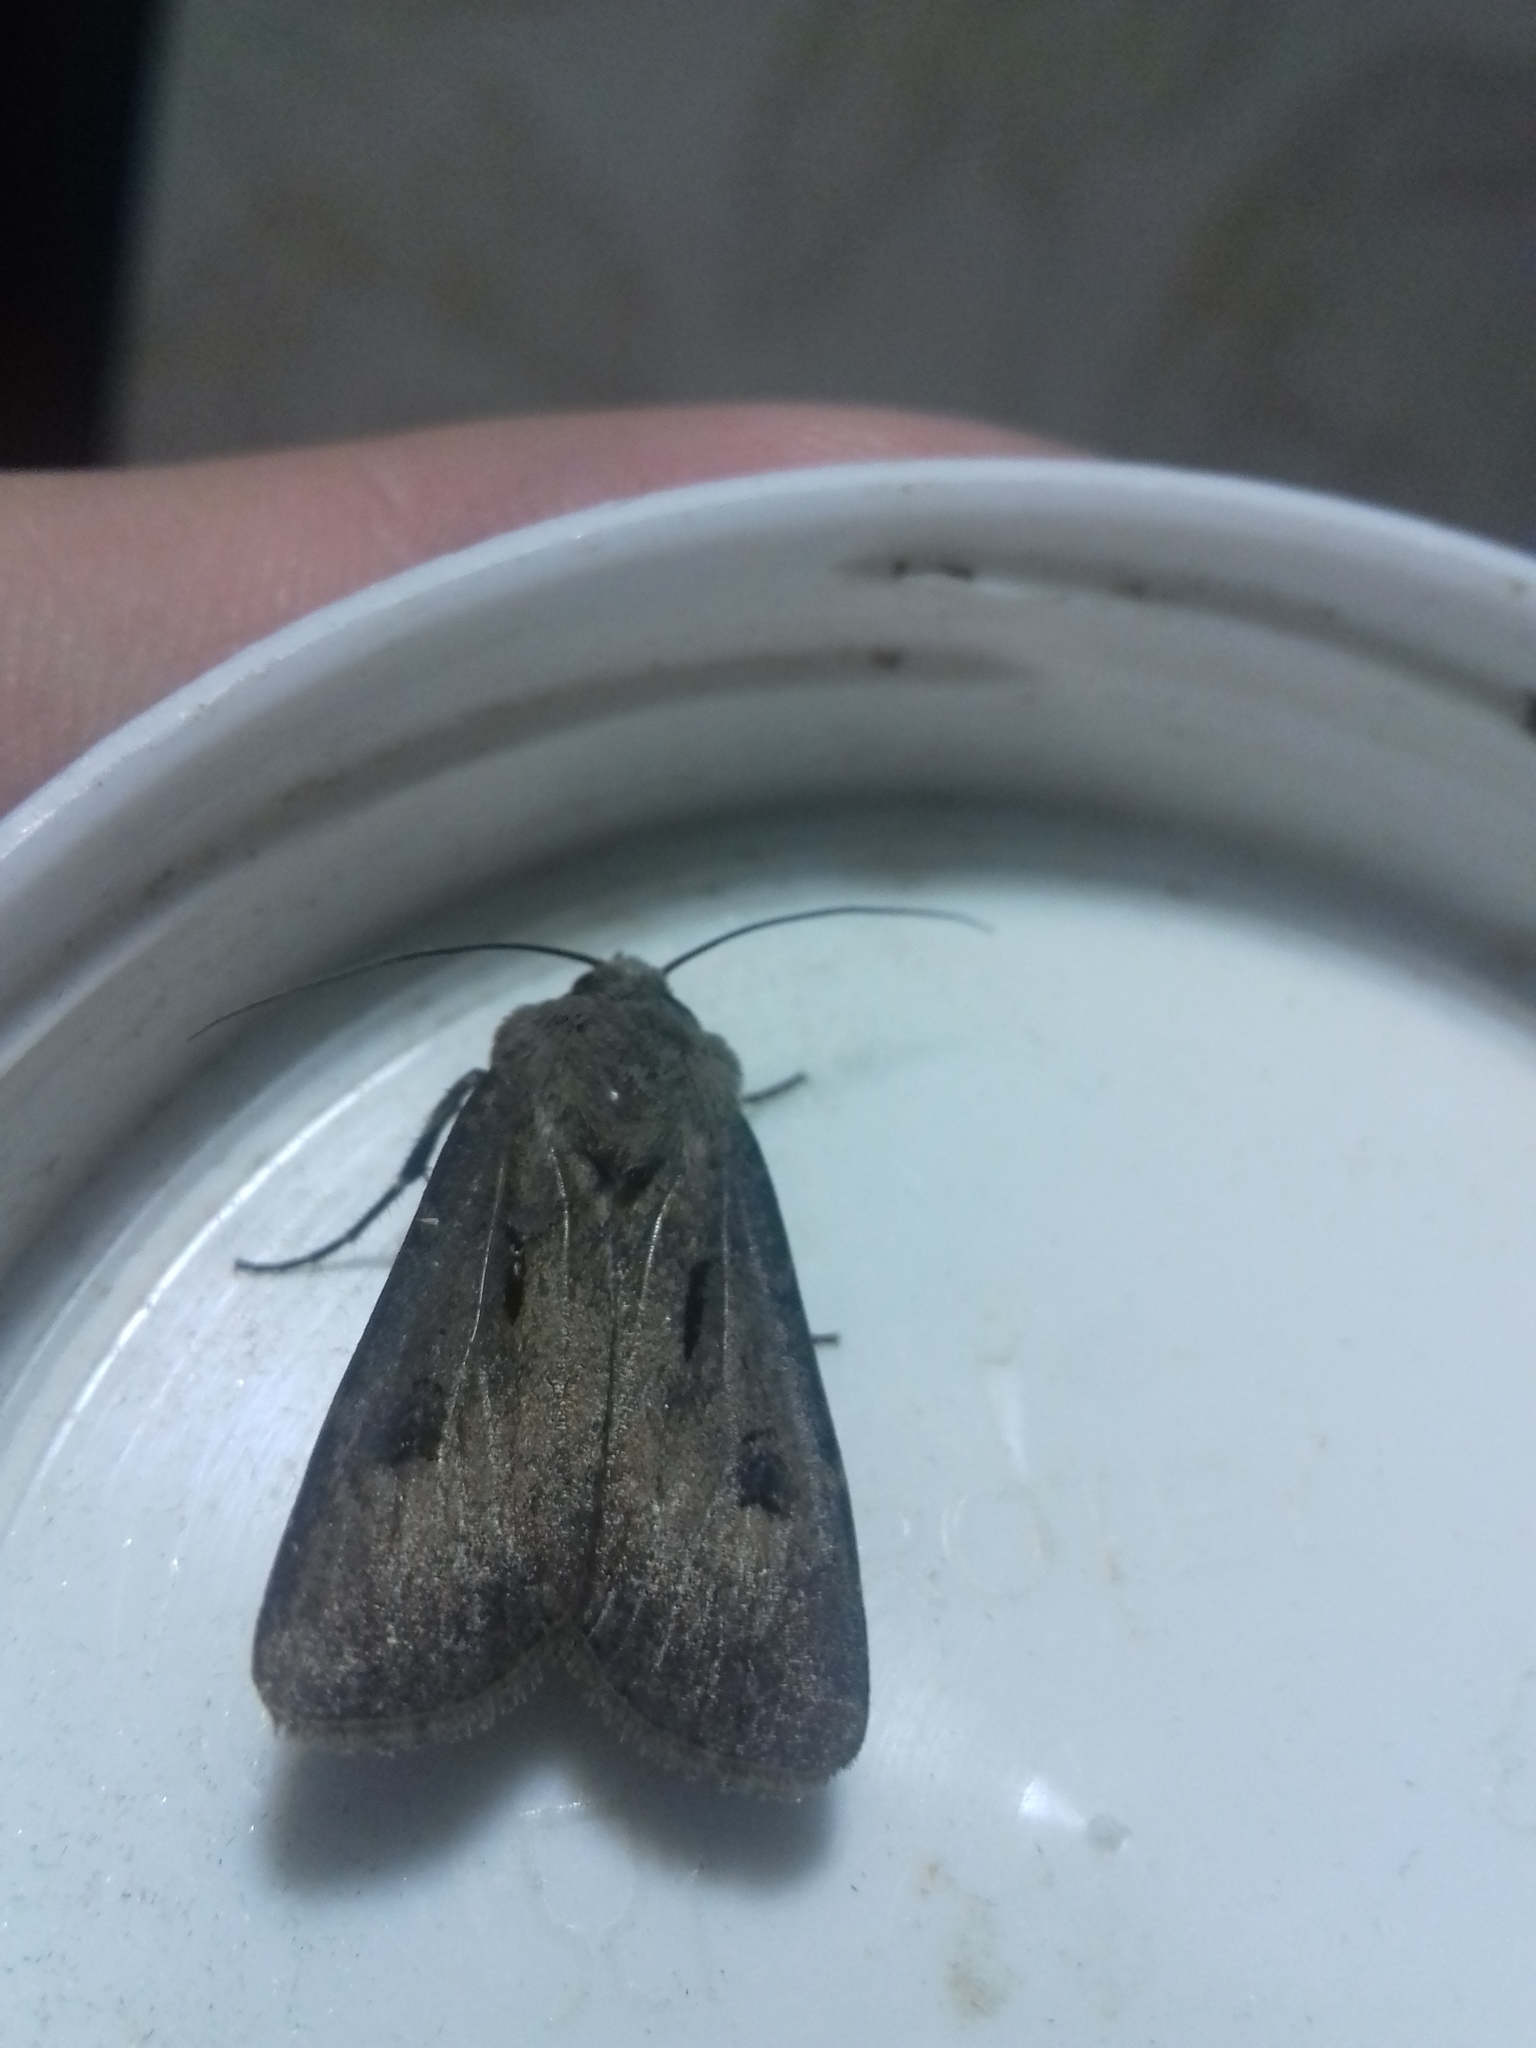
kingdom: Animalia
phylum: Arthropoda
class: Insecta
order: Lepidoptera
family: Noctuidae
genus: Agrotis
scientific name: Agrotis exclamationis
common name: Heart and dart
